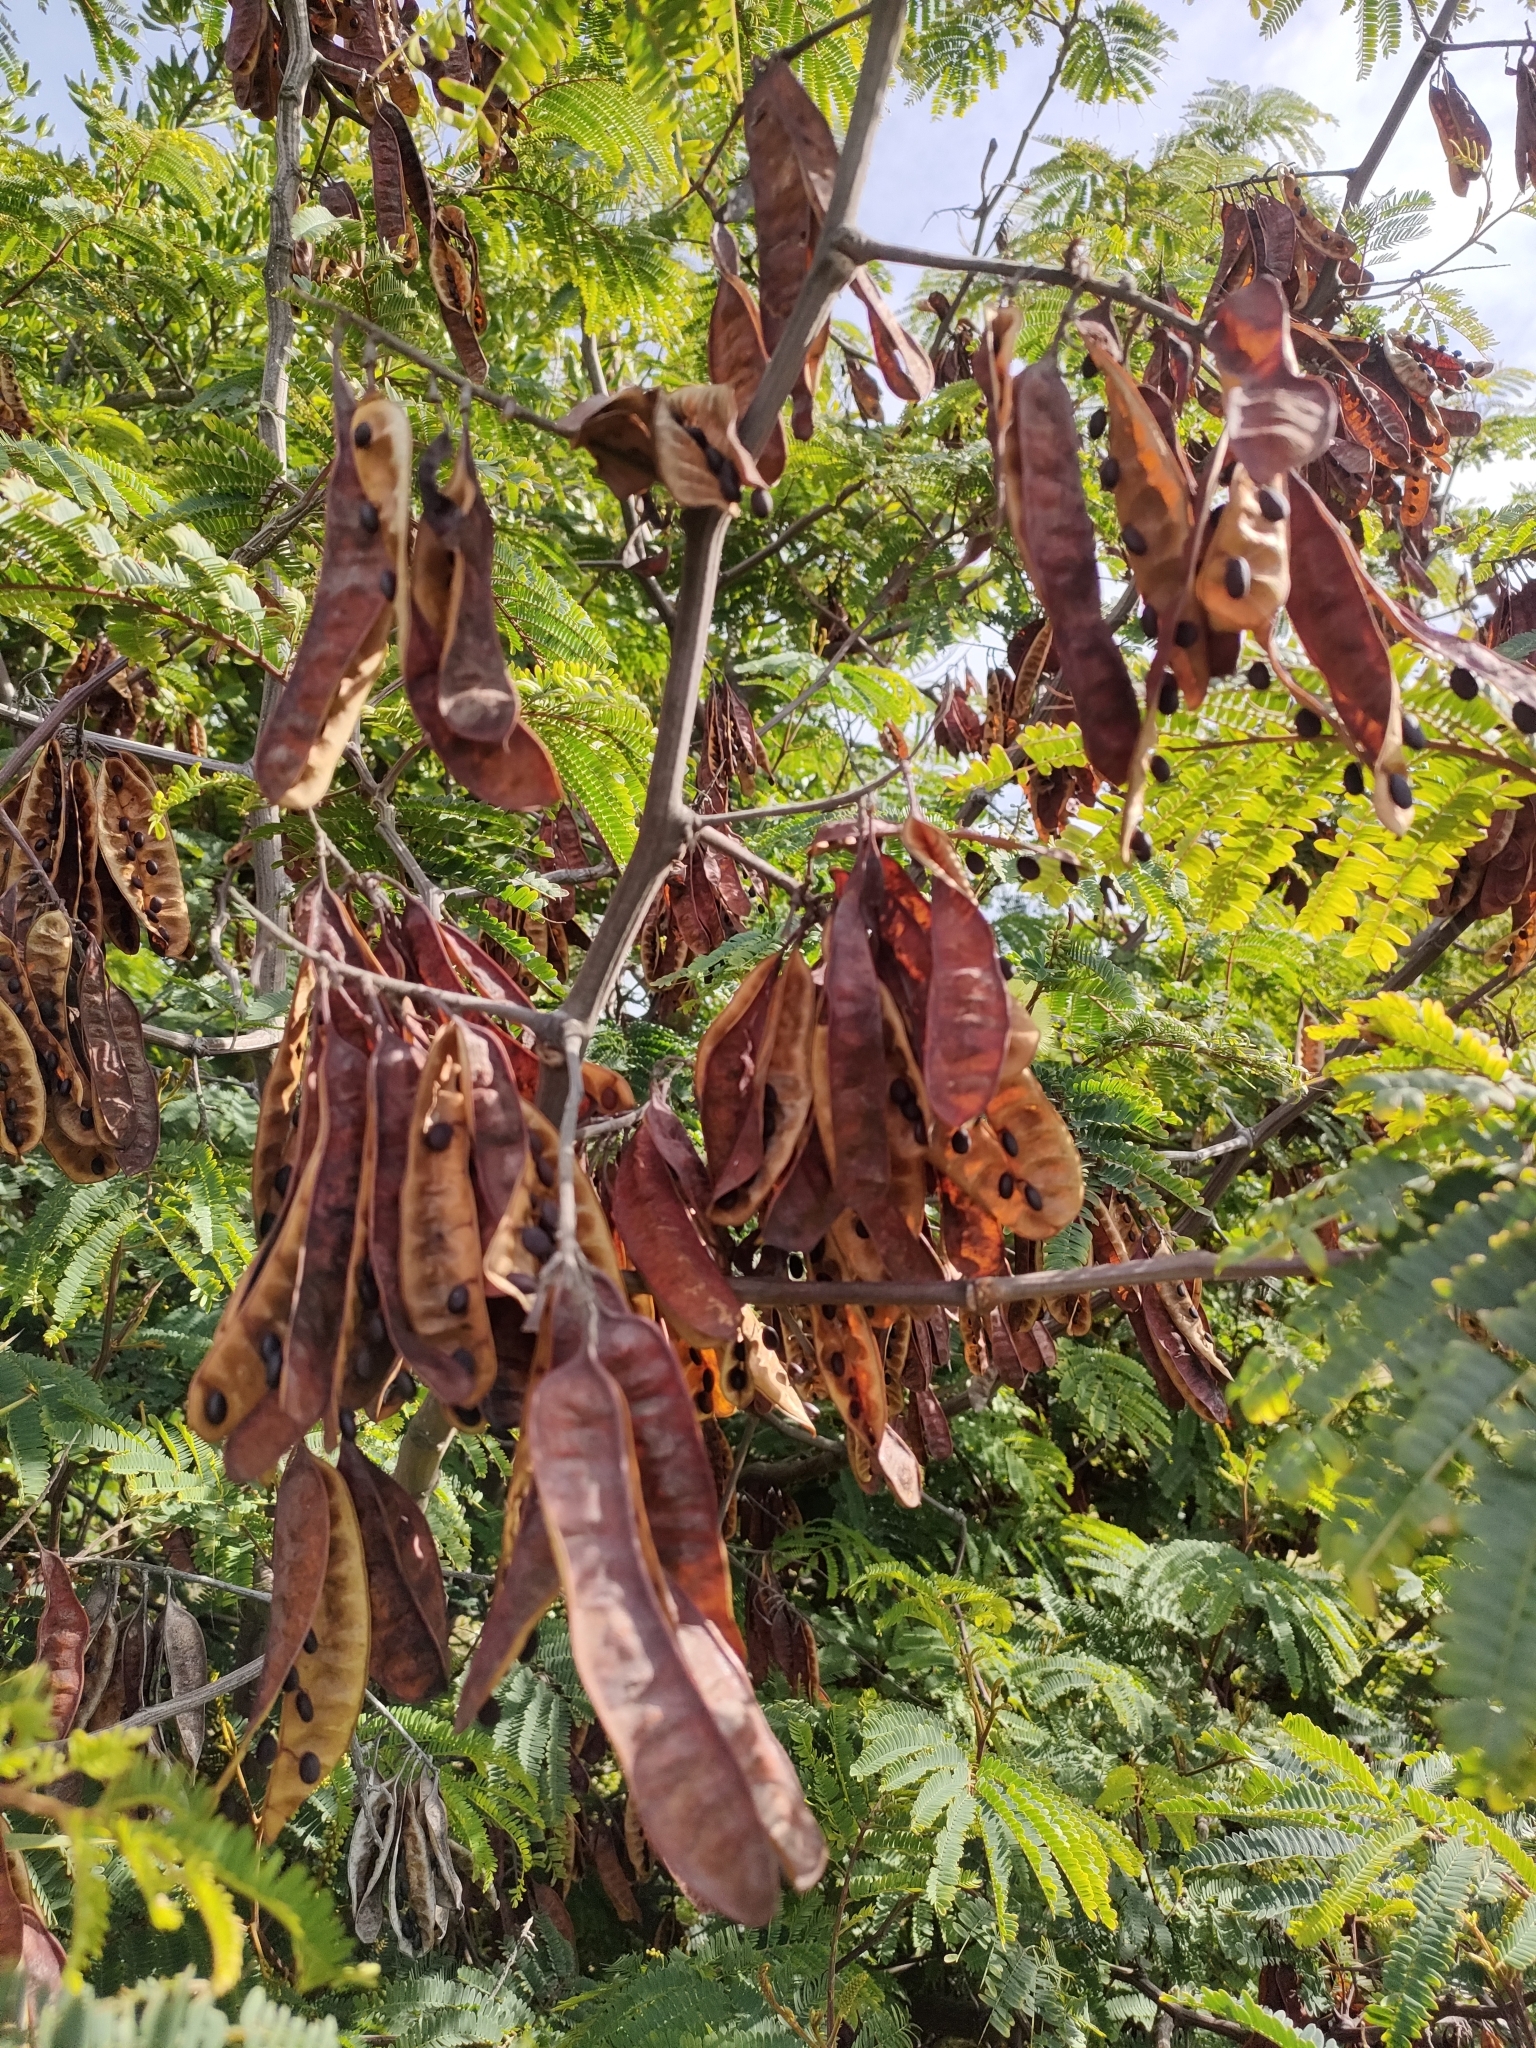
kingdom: Plantae
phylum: Tracheophyta
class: Magnoliopsida
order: Fabales
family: Fabaceae
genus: Paraserianthes
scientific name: Paraserianthes lophantha
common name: Plume albizia
